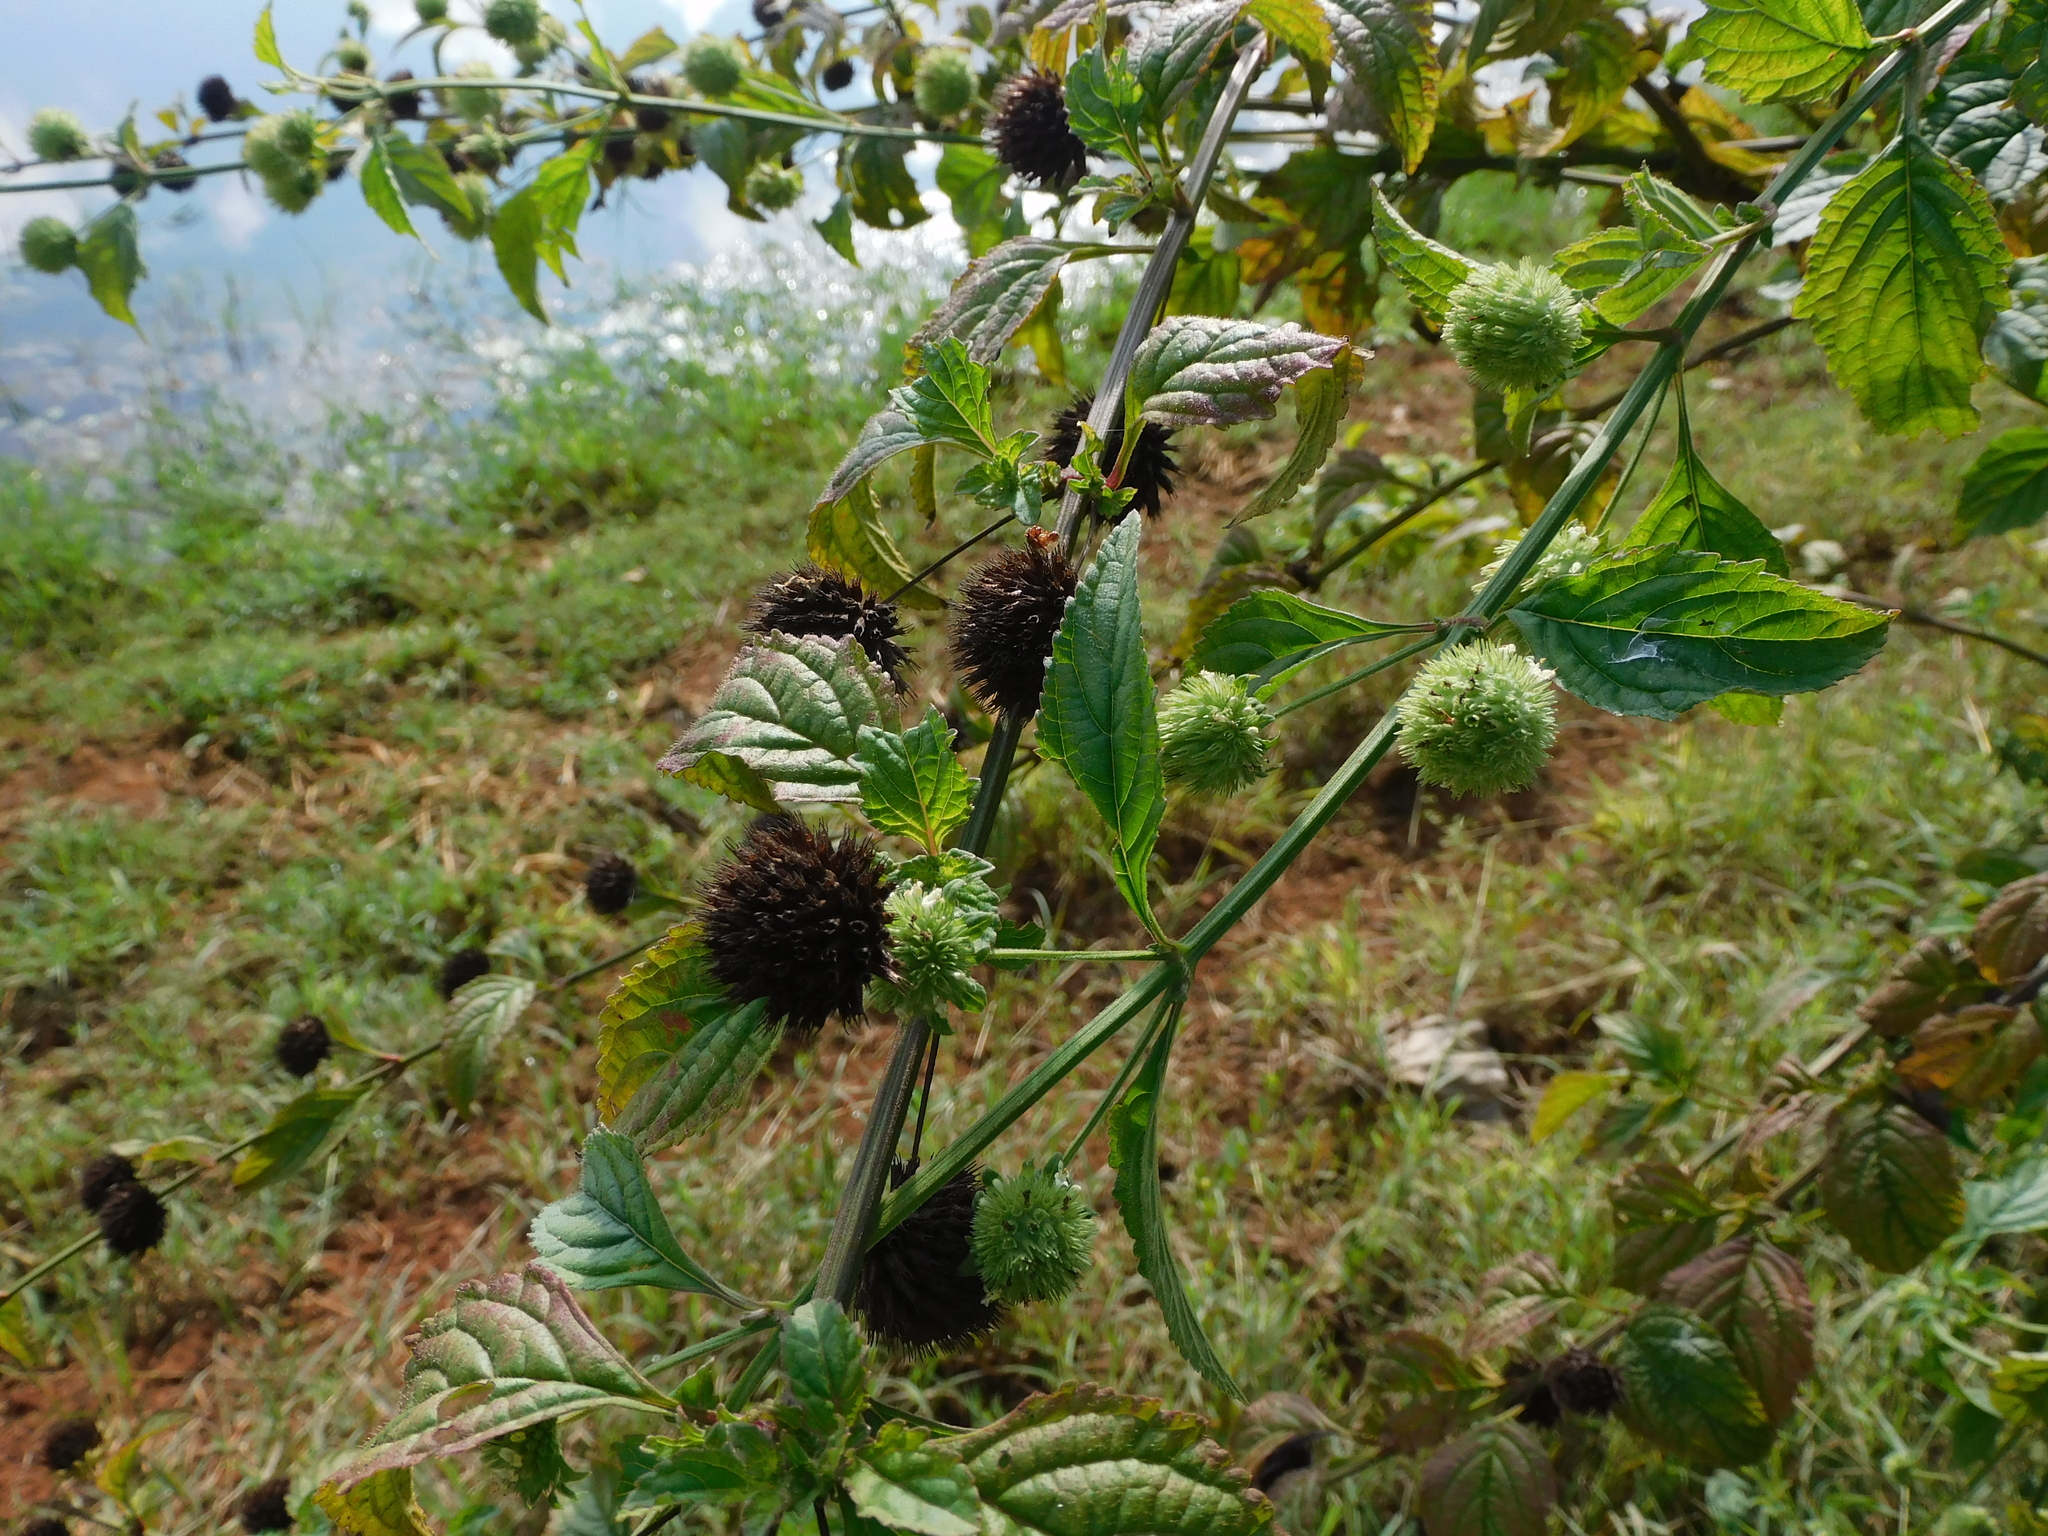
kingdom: Plantae
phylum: Tracheophyta
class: Magnoliopsida
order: Lamiales
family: Lamiaceae
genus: Hyptis
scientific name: Hyptis capitata
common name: False ironwort
